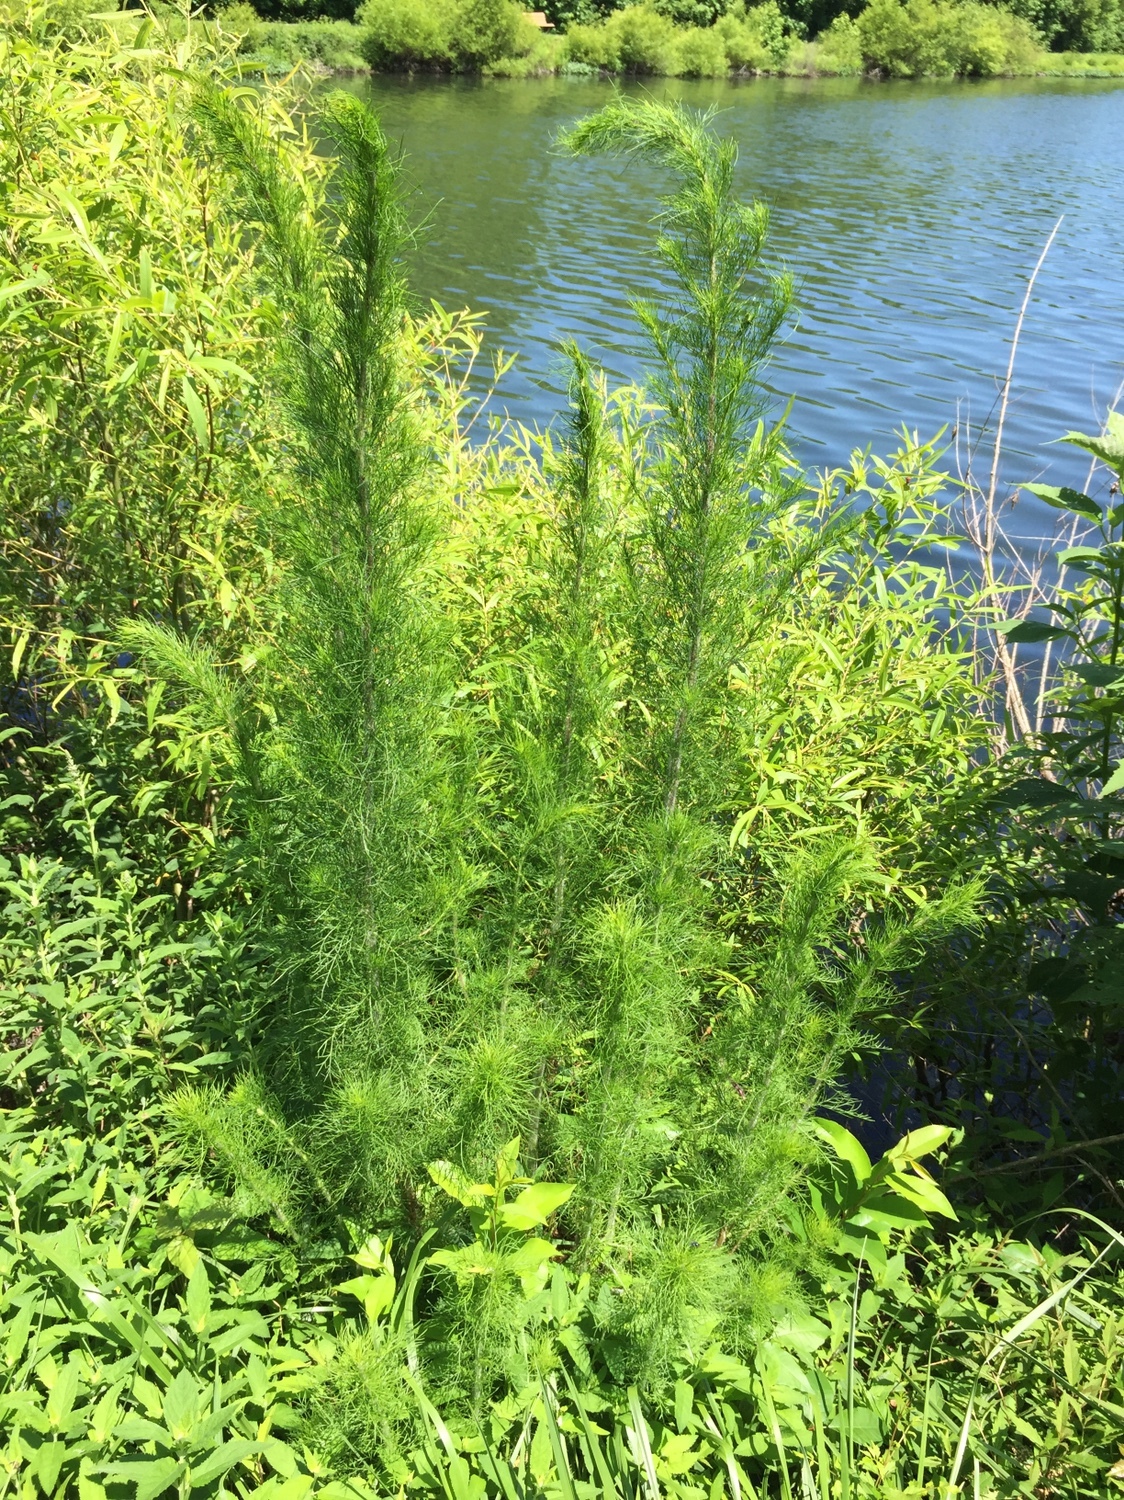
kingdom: Plantae
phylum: Tracheophyta
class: Magnoliopsida
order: Asterales
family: Asteraceae
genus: Eupatorium
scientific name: Eupatorium capillifolium
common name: Dog-fennel
